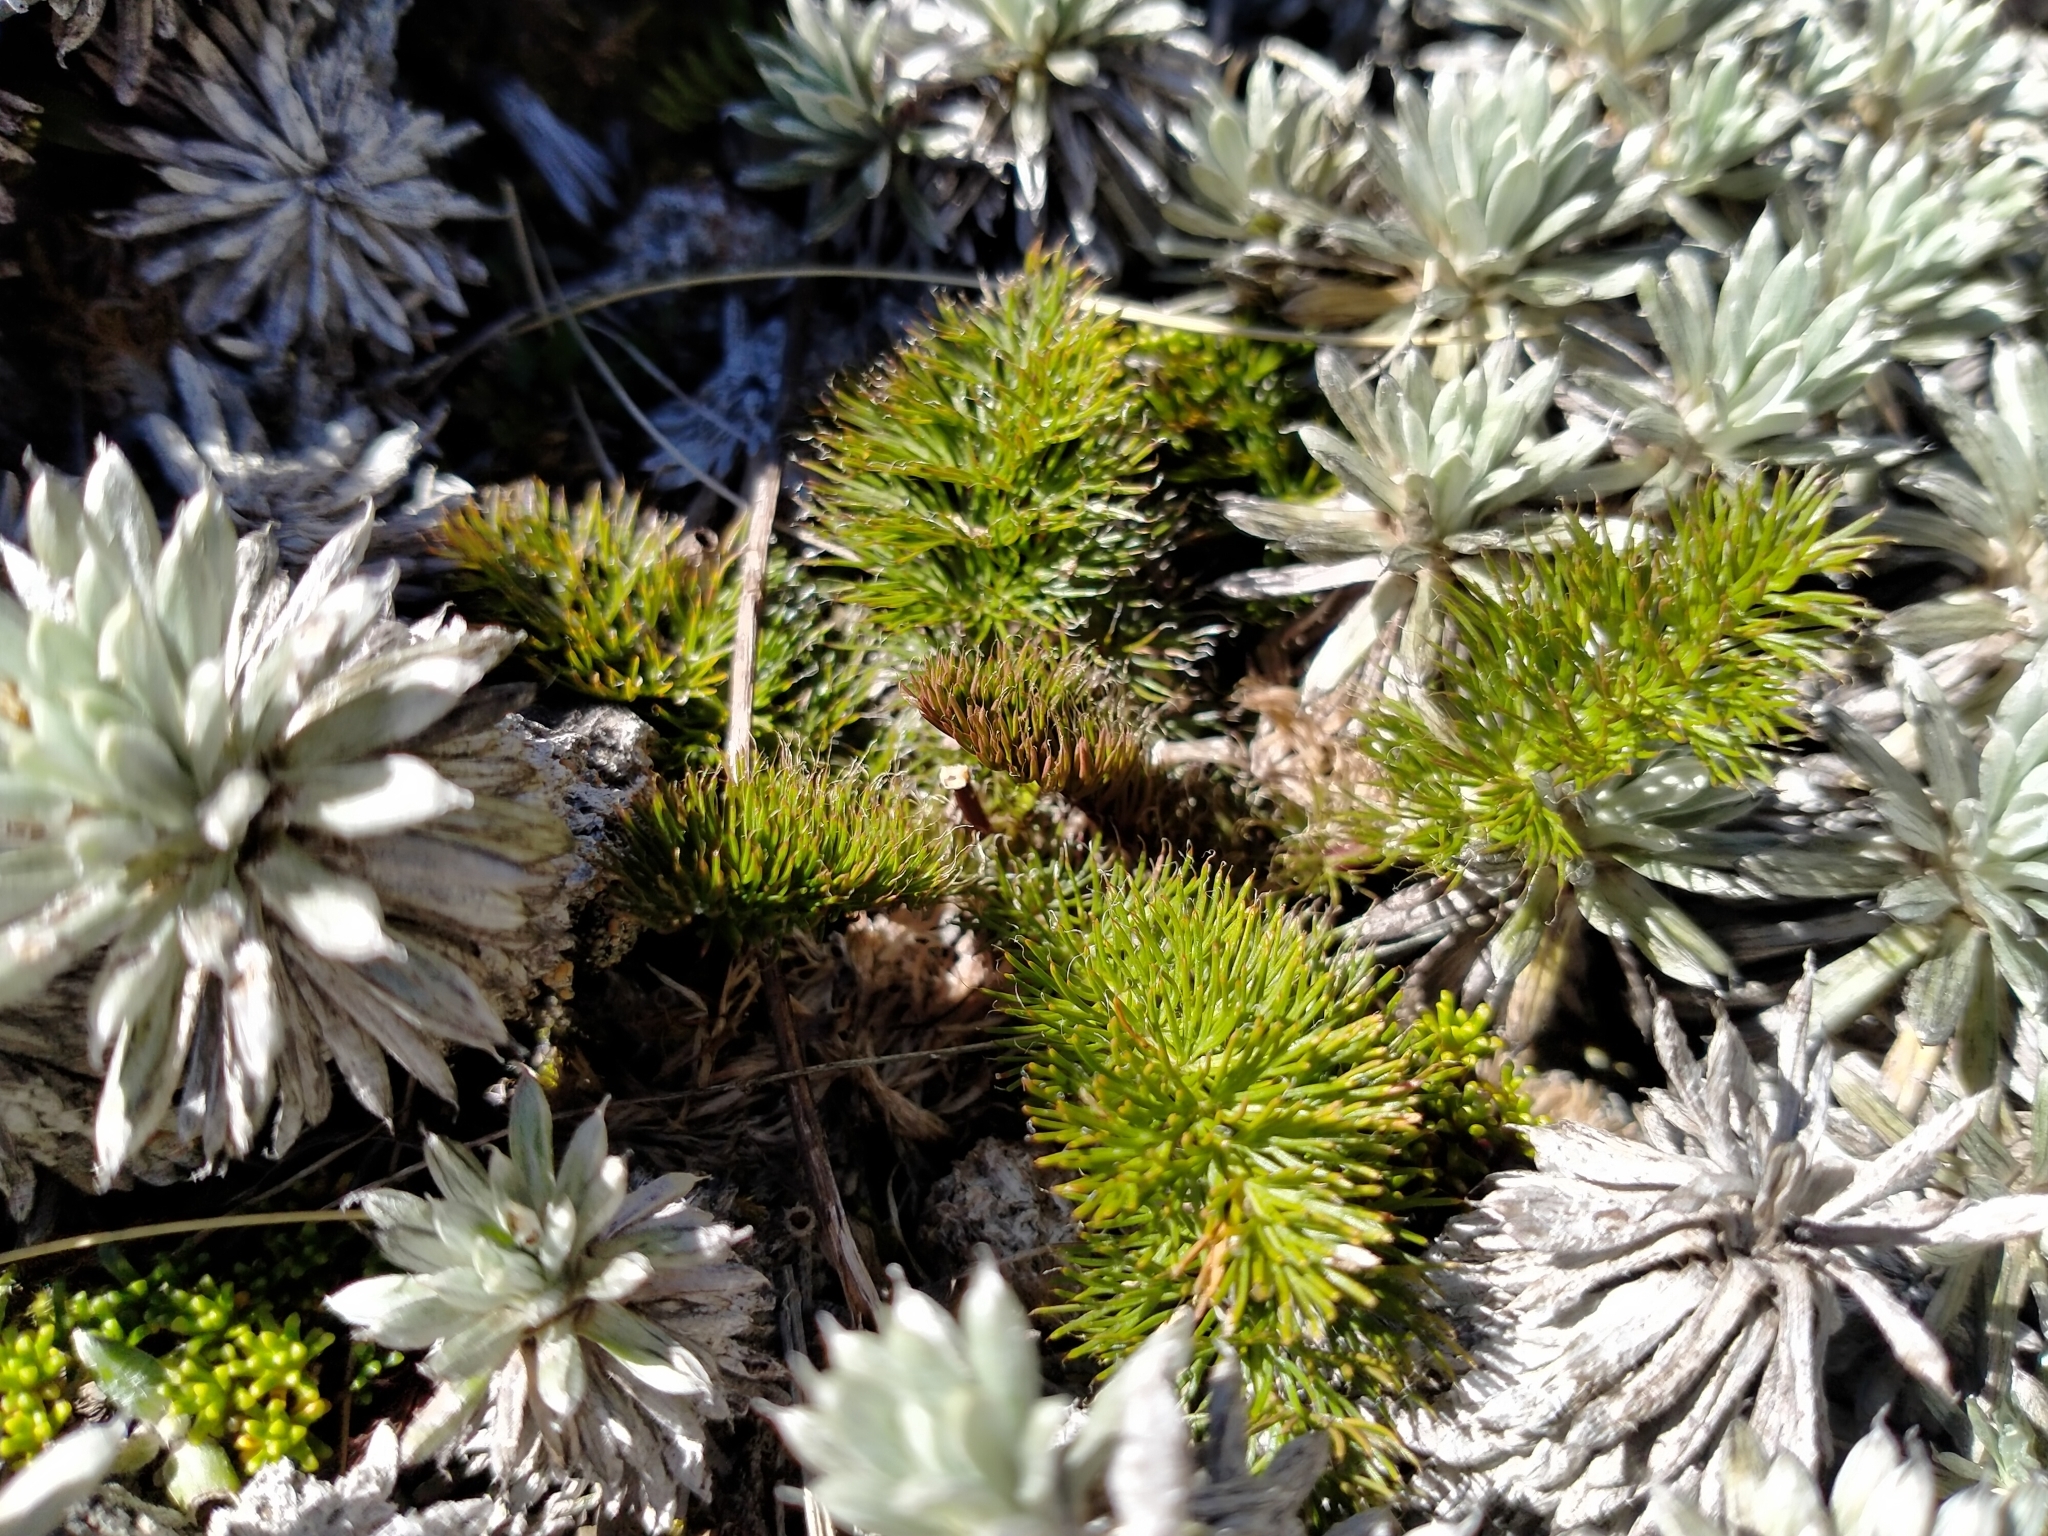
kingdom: Plantae
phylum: Tracheophyta
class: Magnoliopsida
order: Apiales
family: Apiaceae
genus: Anisotome
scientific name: Anisotome capillifolia
